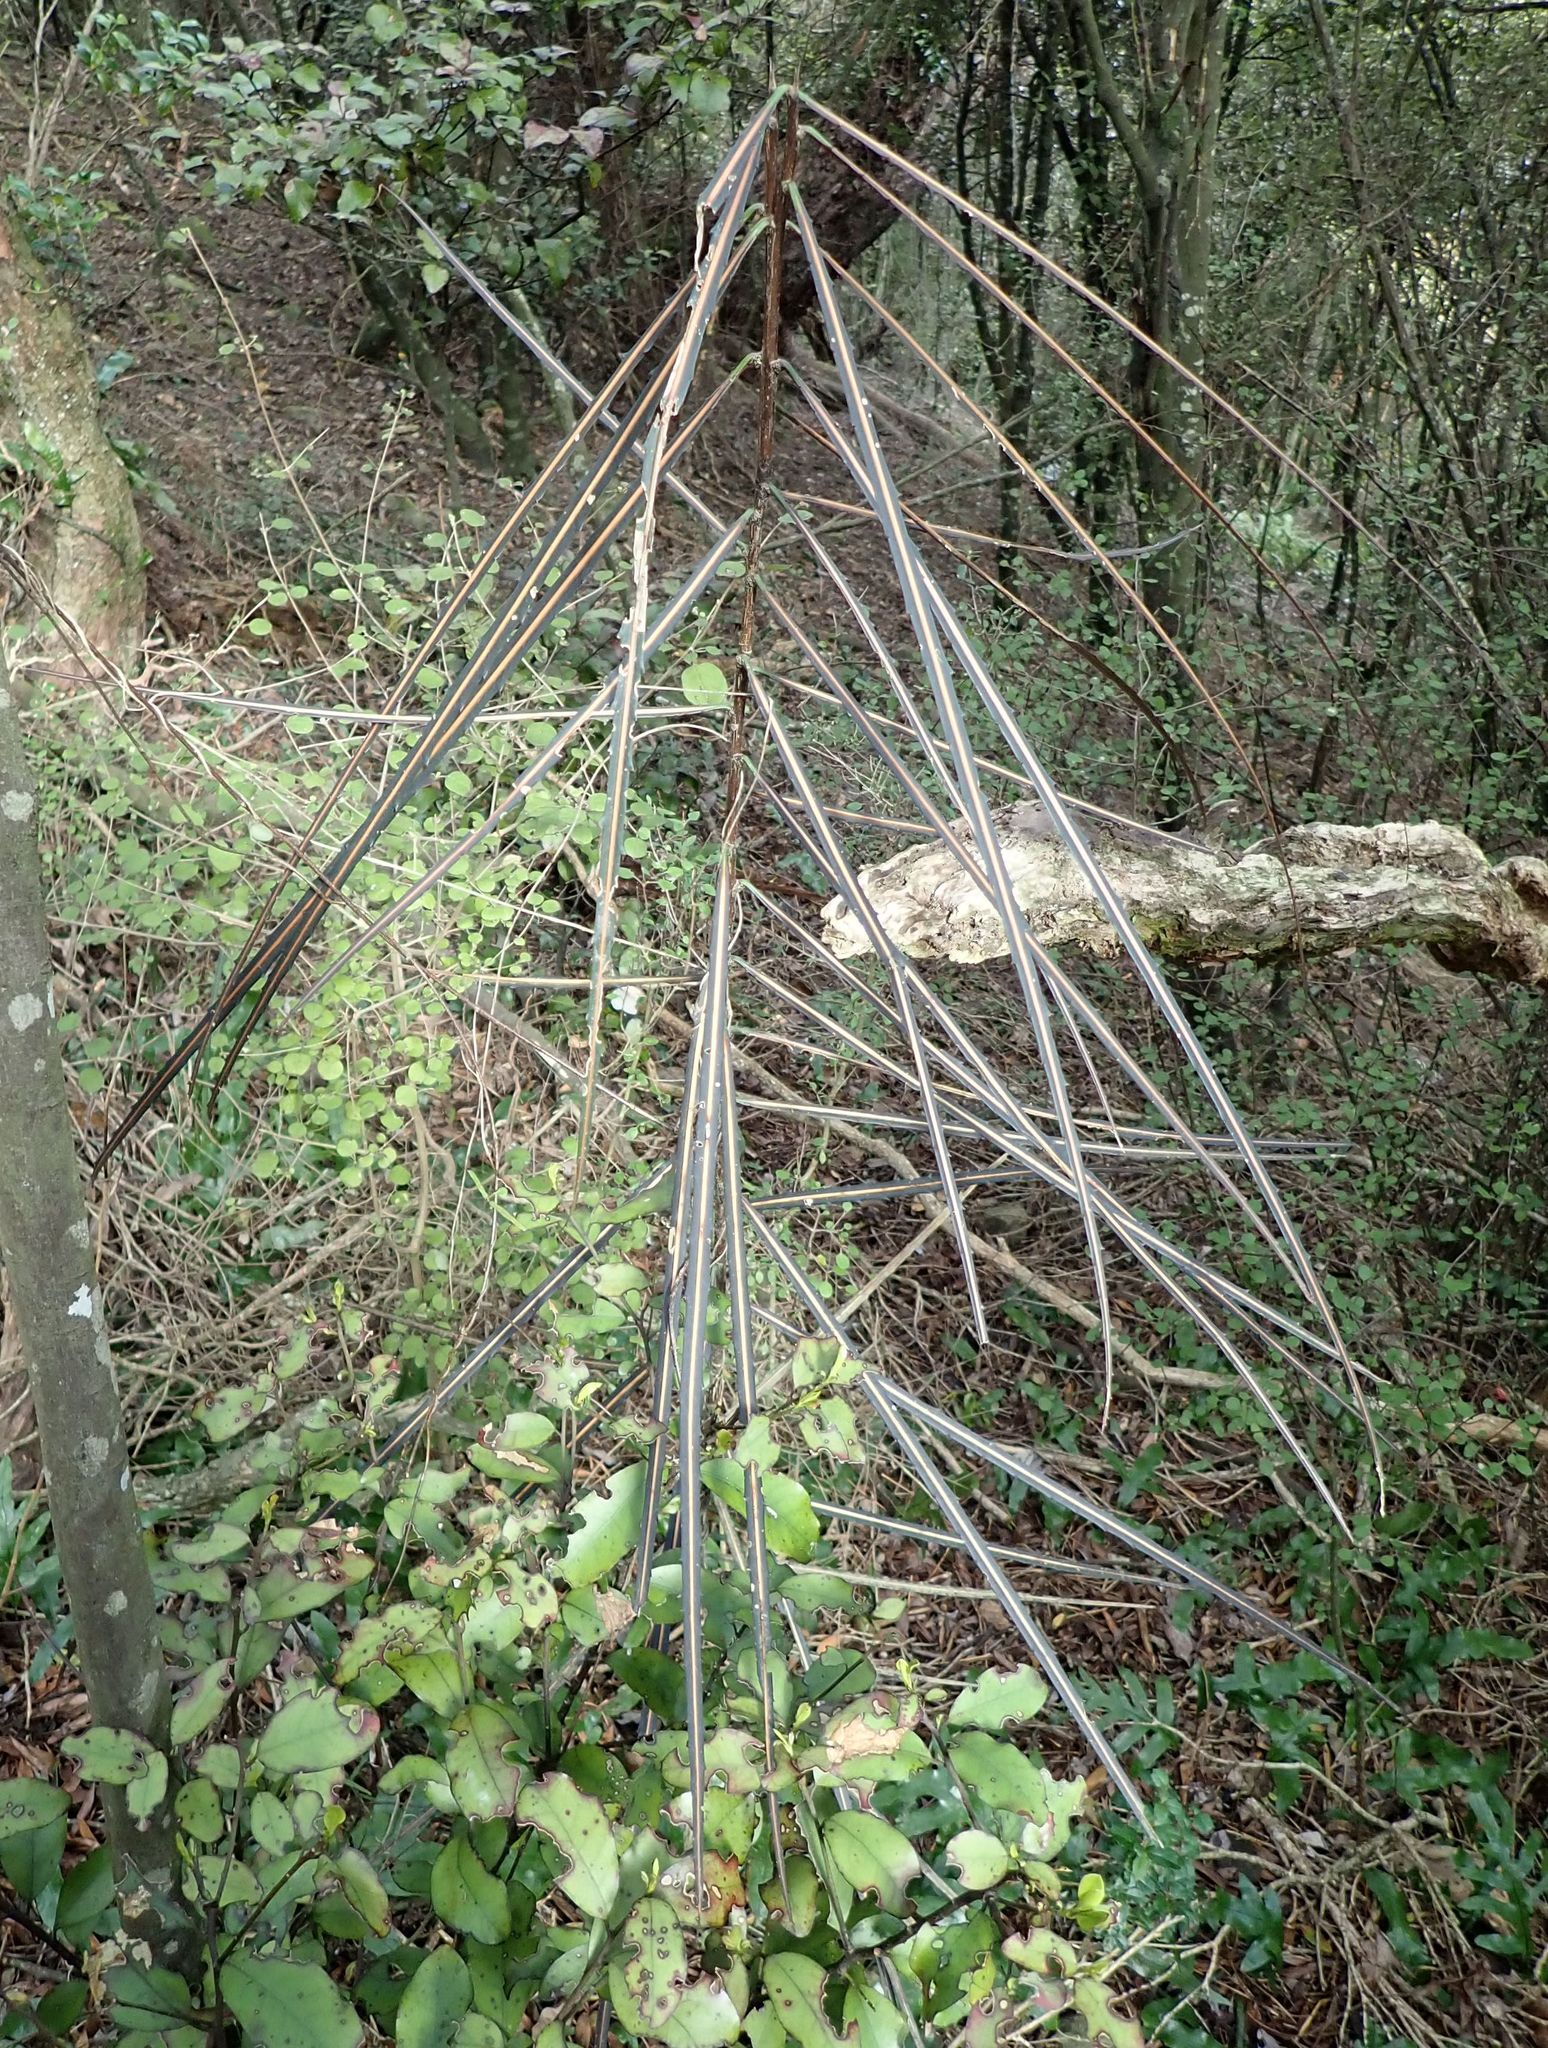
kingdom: Plantae
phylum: Tracheophyta
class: Magnoliopsida
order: Apiales
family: Araliaceae
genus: Pseudopanax
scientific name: Pseudopanax crassifolius
